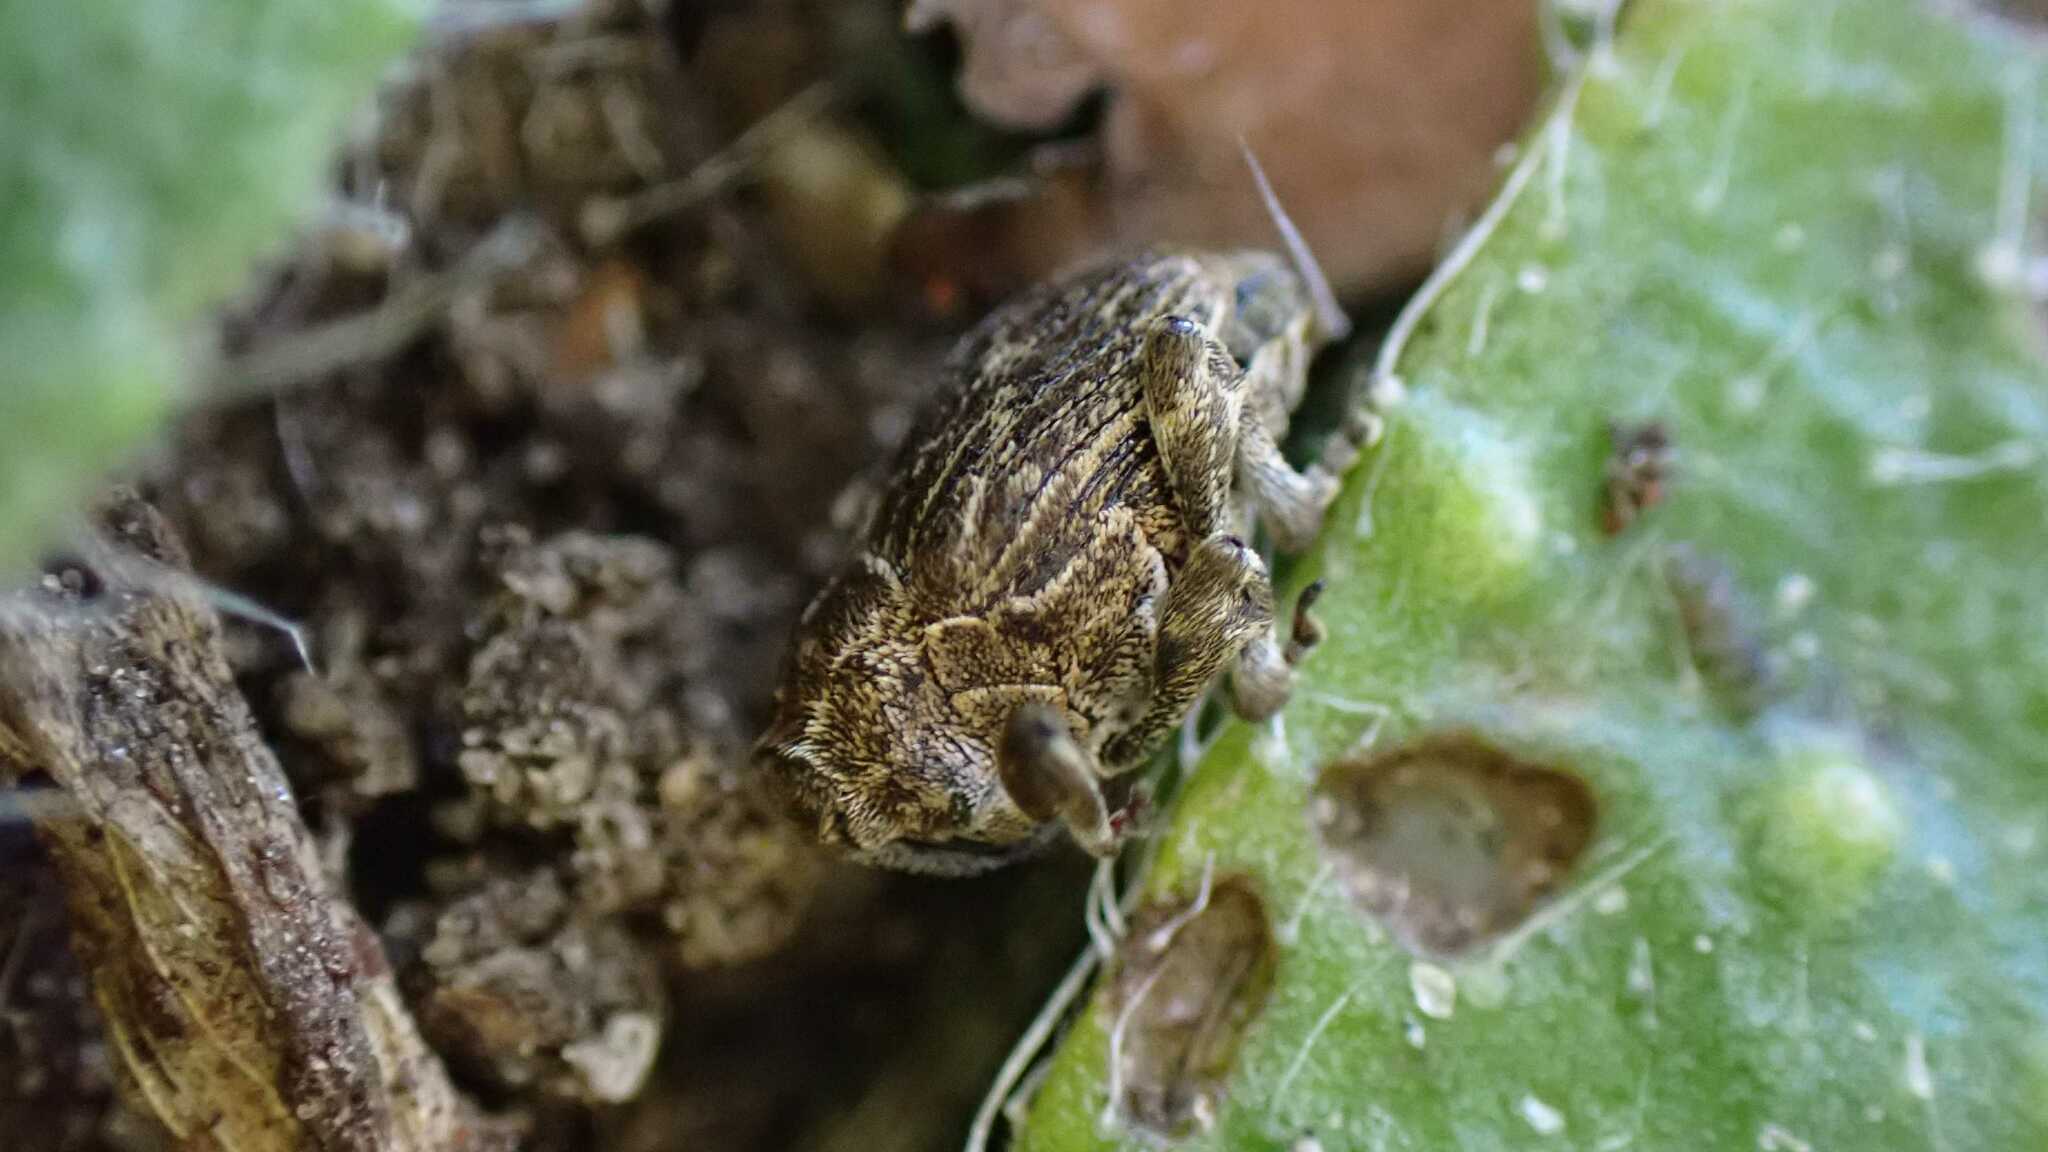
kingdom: Animalia
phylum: Arthropoda
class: Insecta
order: Coleoptera
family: Curculionidae
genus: Mogulones
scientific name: Mogulones geographicus
